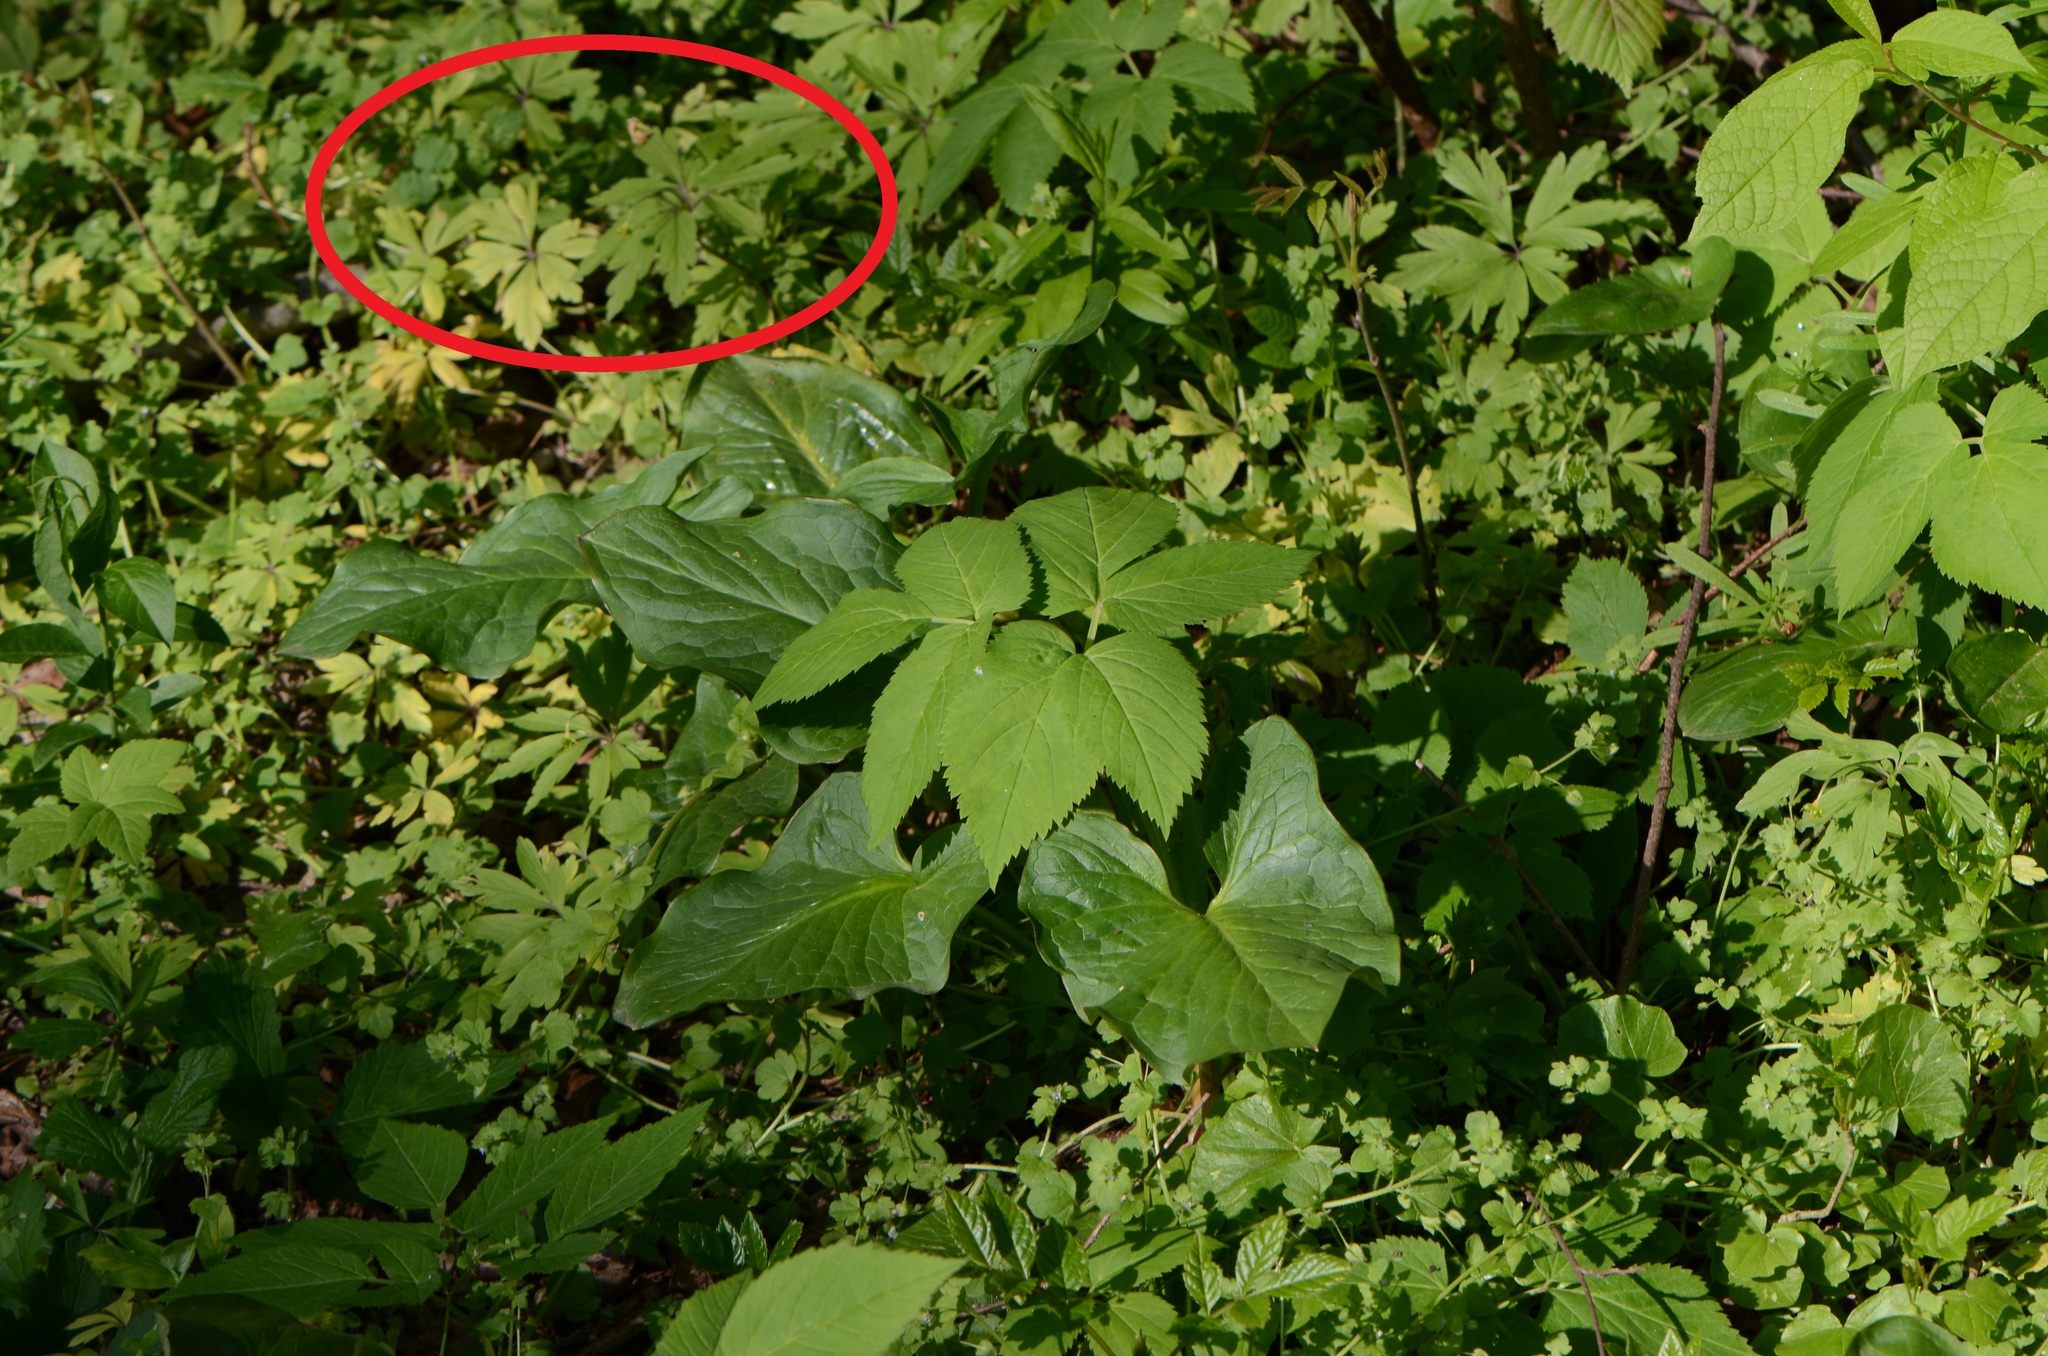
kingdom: Plantae
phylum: Tracheophyta
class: Magnoliopsida
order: Ranunculales
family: Ranunculaceae
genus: Anemone
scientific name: Anemone ranunculoides
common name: Yellow anemone
